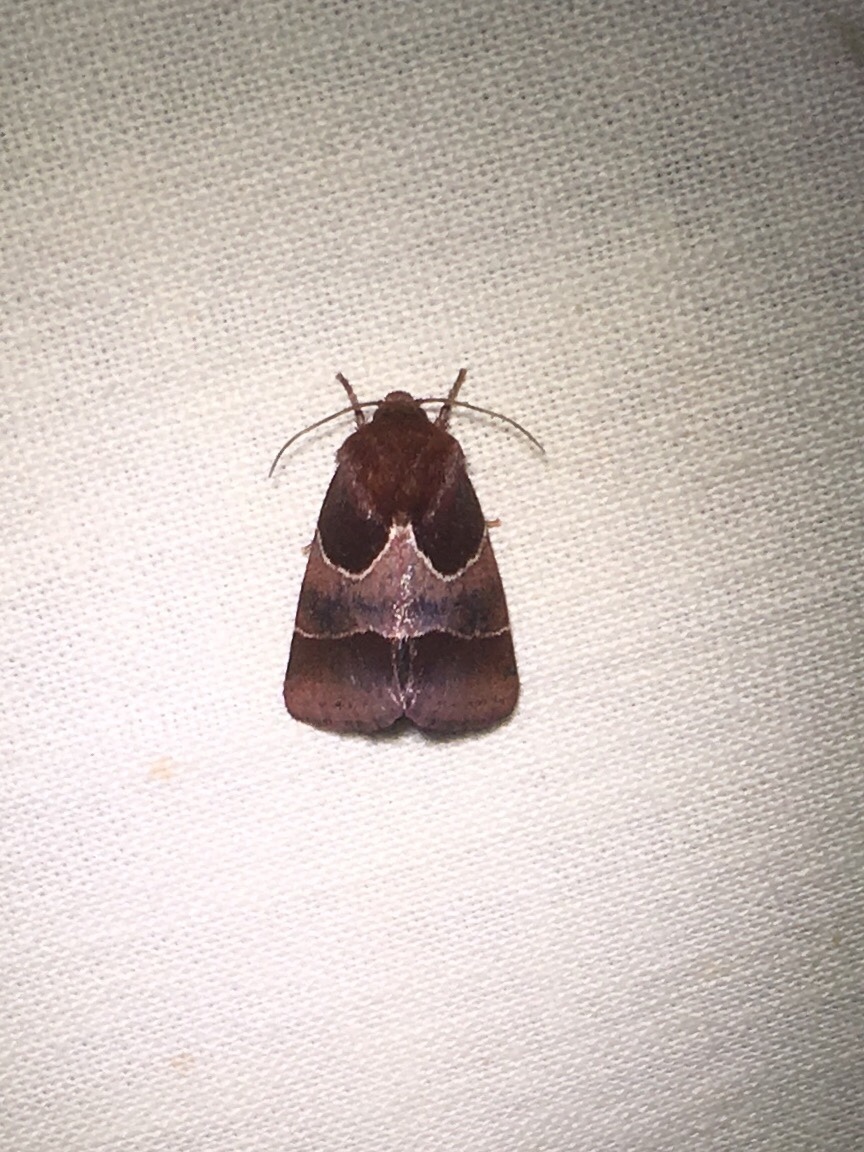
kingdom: Animalia
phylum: Arthropoda
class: Insecta
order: Lepidoptera
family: Noctuidae
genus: Schinia
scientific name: Schinia arcigera
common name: Arcigera flower moth
